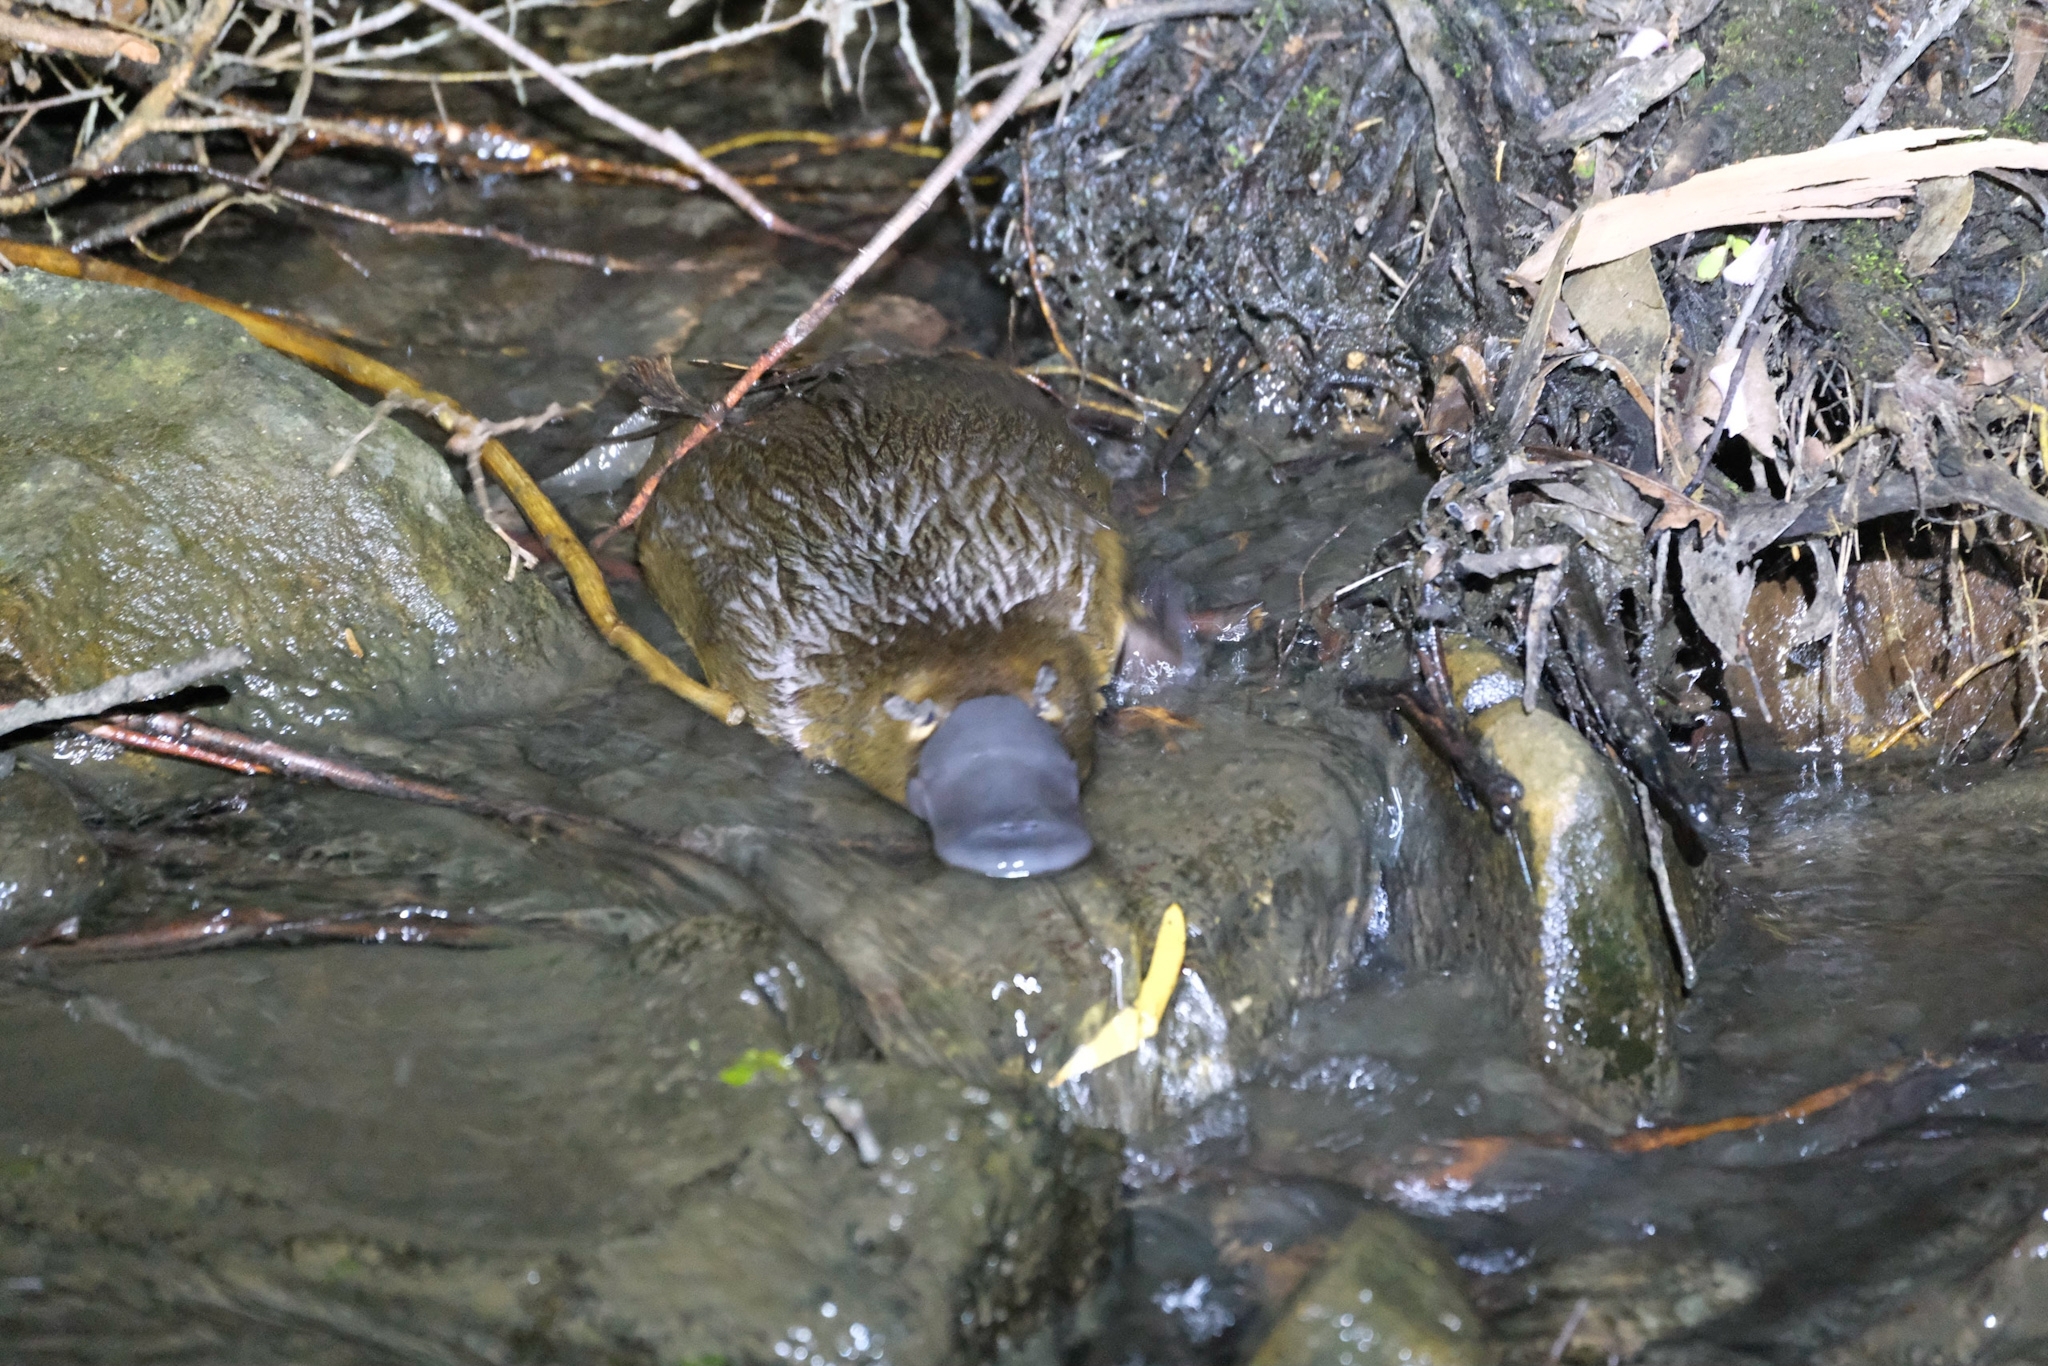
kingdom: Animalia
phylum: Chordata
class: Mammalia
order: Monotremata
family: Ornithorhynchidae
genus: Ornithorhynchus
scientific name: Ornithorhynchus anatinus
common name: Platypus
